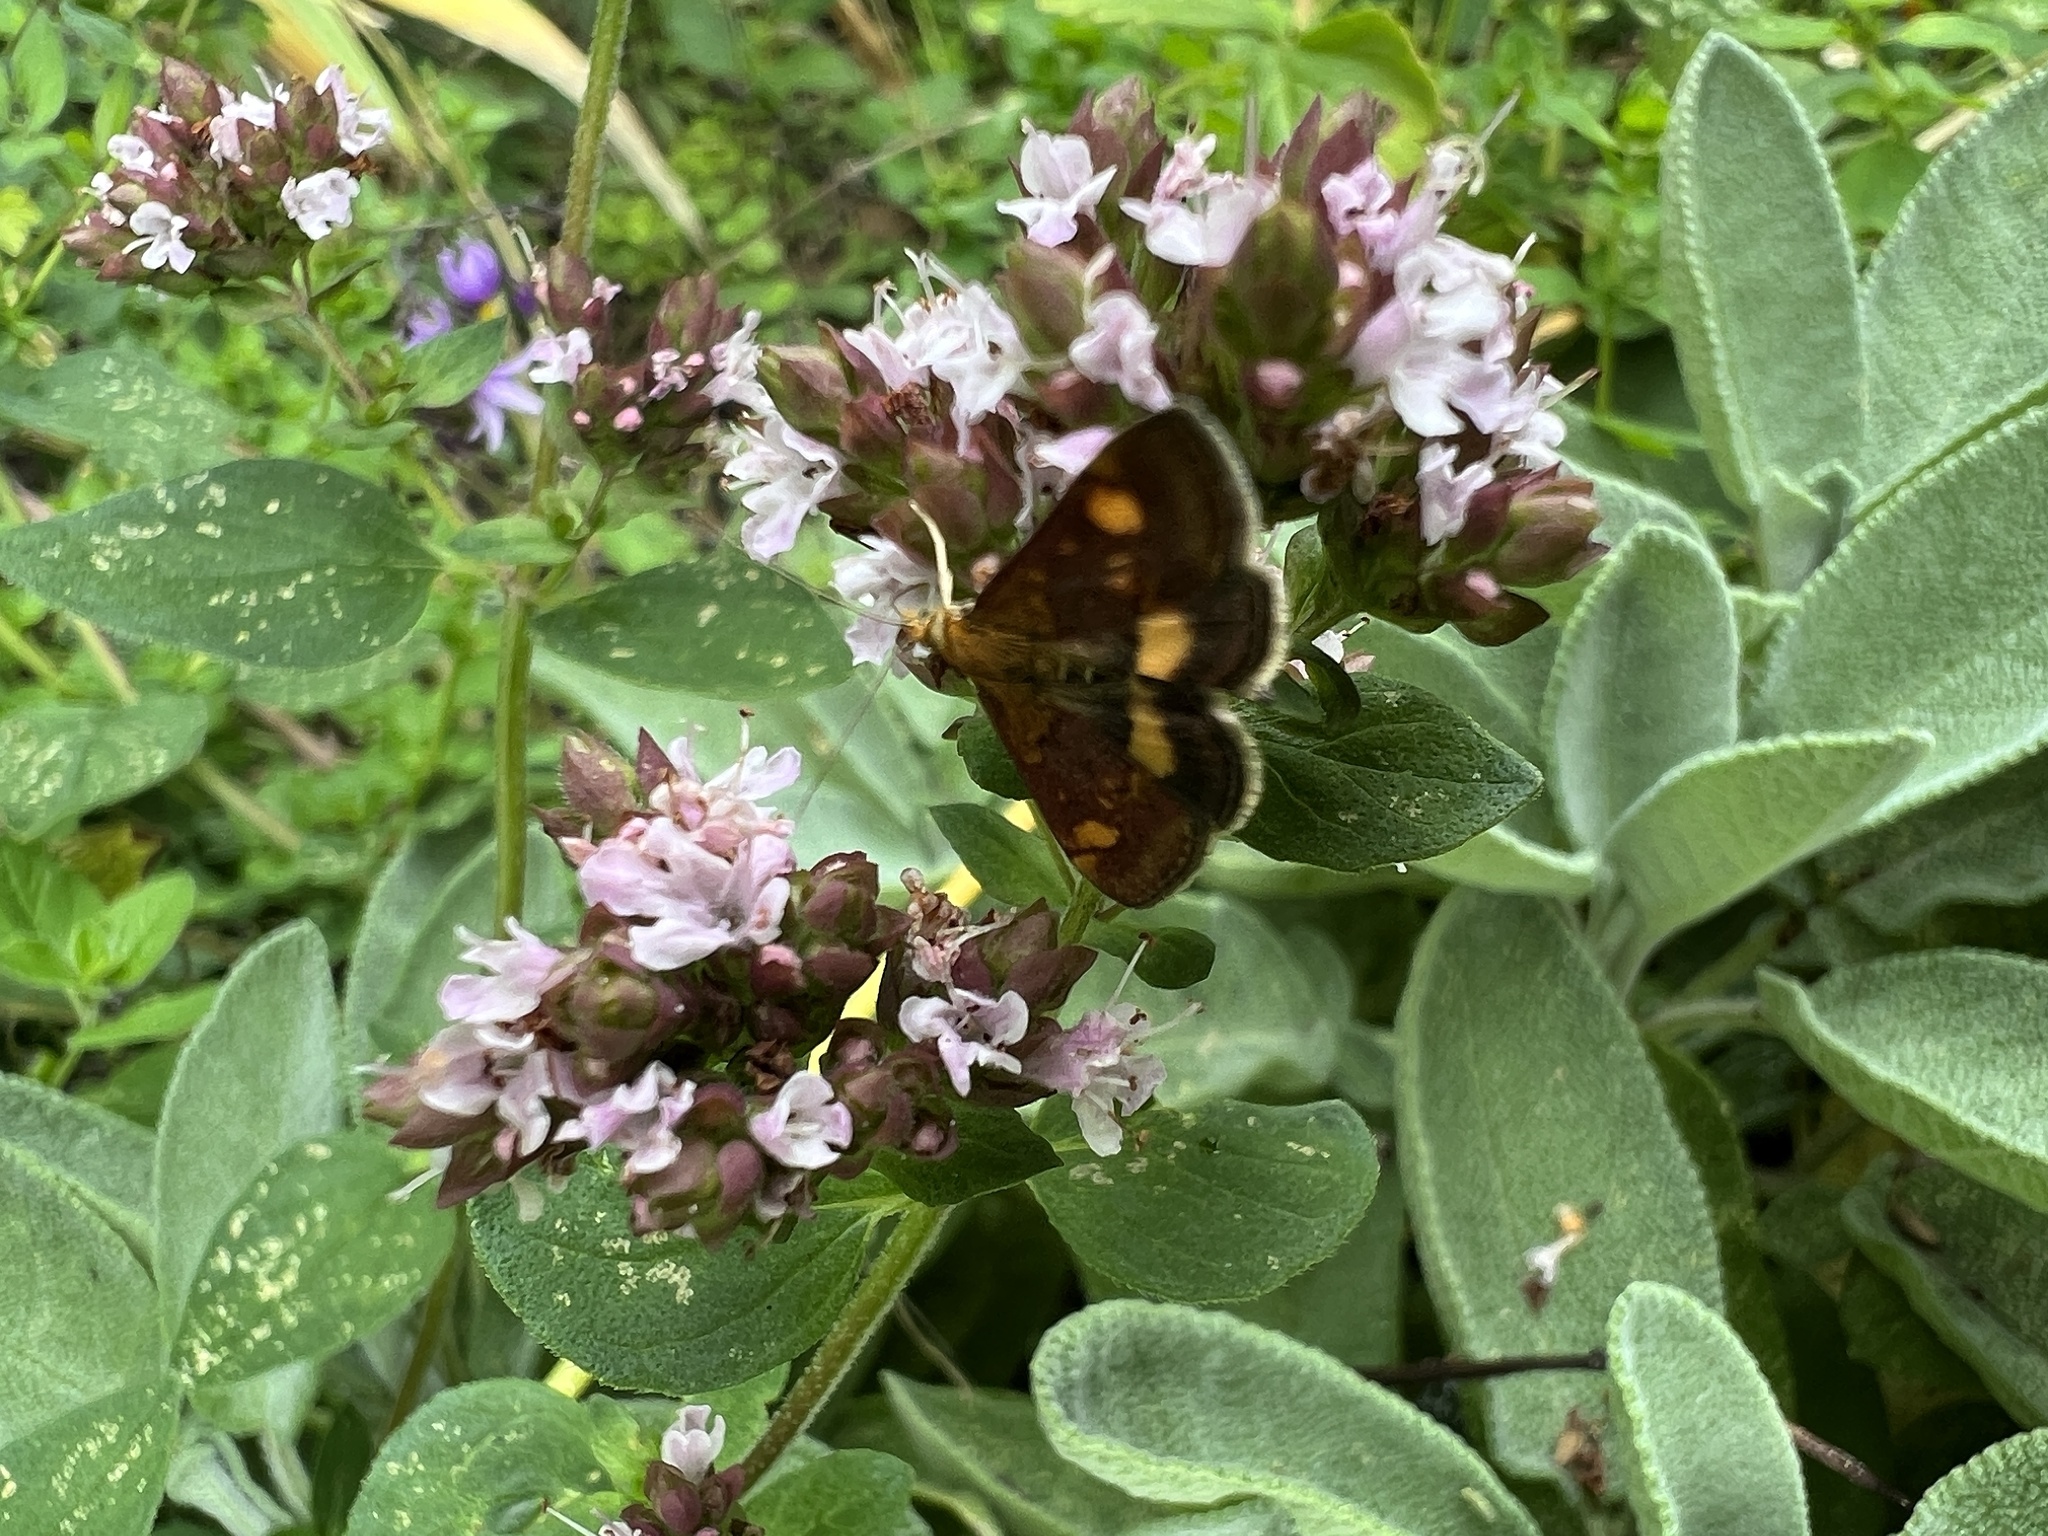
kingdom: Animalia
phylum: Arthropoda
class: Insecta
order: Lepidoptera
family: Crambidae
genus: Pyrausta
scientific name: Pyrausta aurata
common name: Small purple & gold
